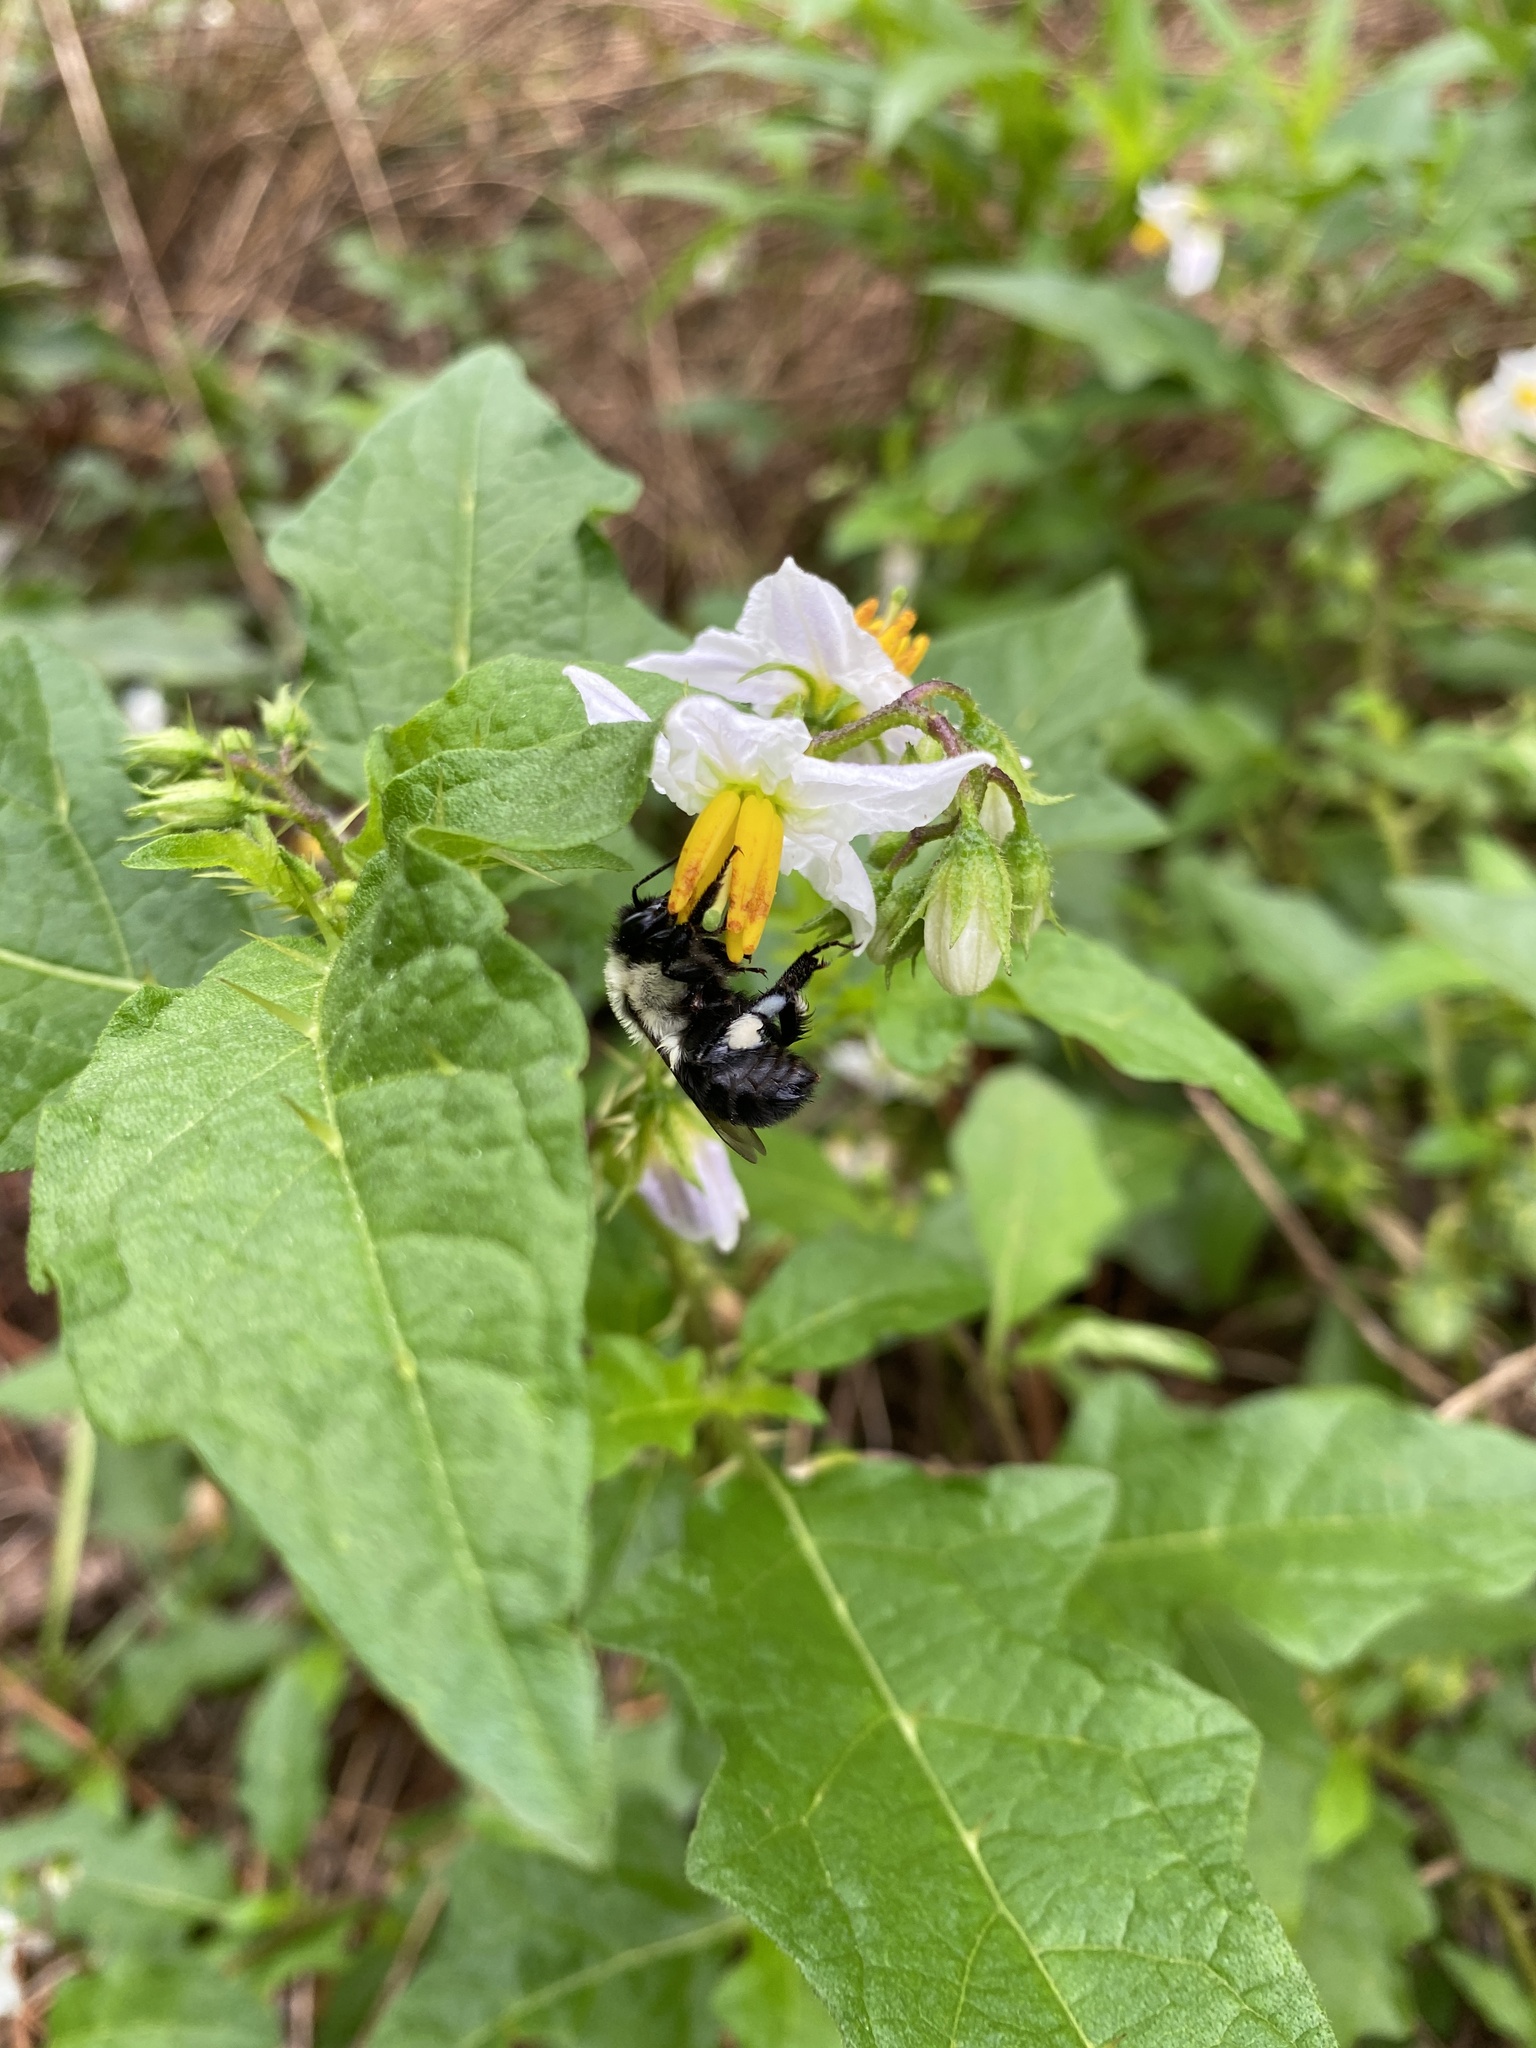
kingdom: Animalia
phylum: Arthropoda
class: Insecta
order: Hymenoptera
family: Apidae
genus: Bombus
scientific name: Bombus impatiens
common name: Common eastern bumble bee
